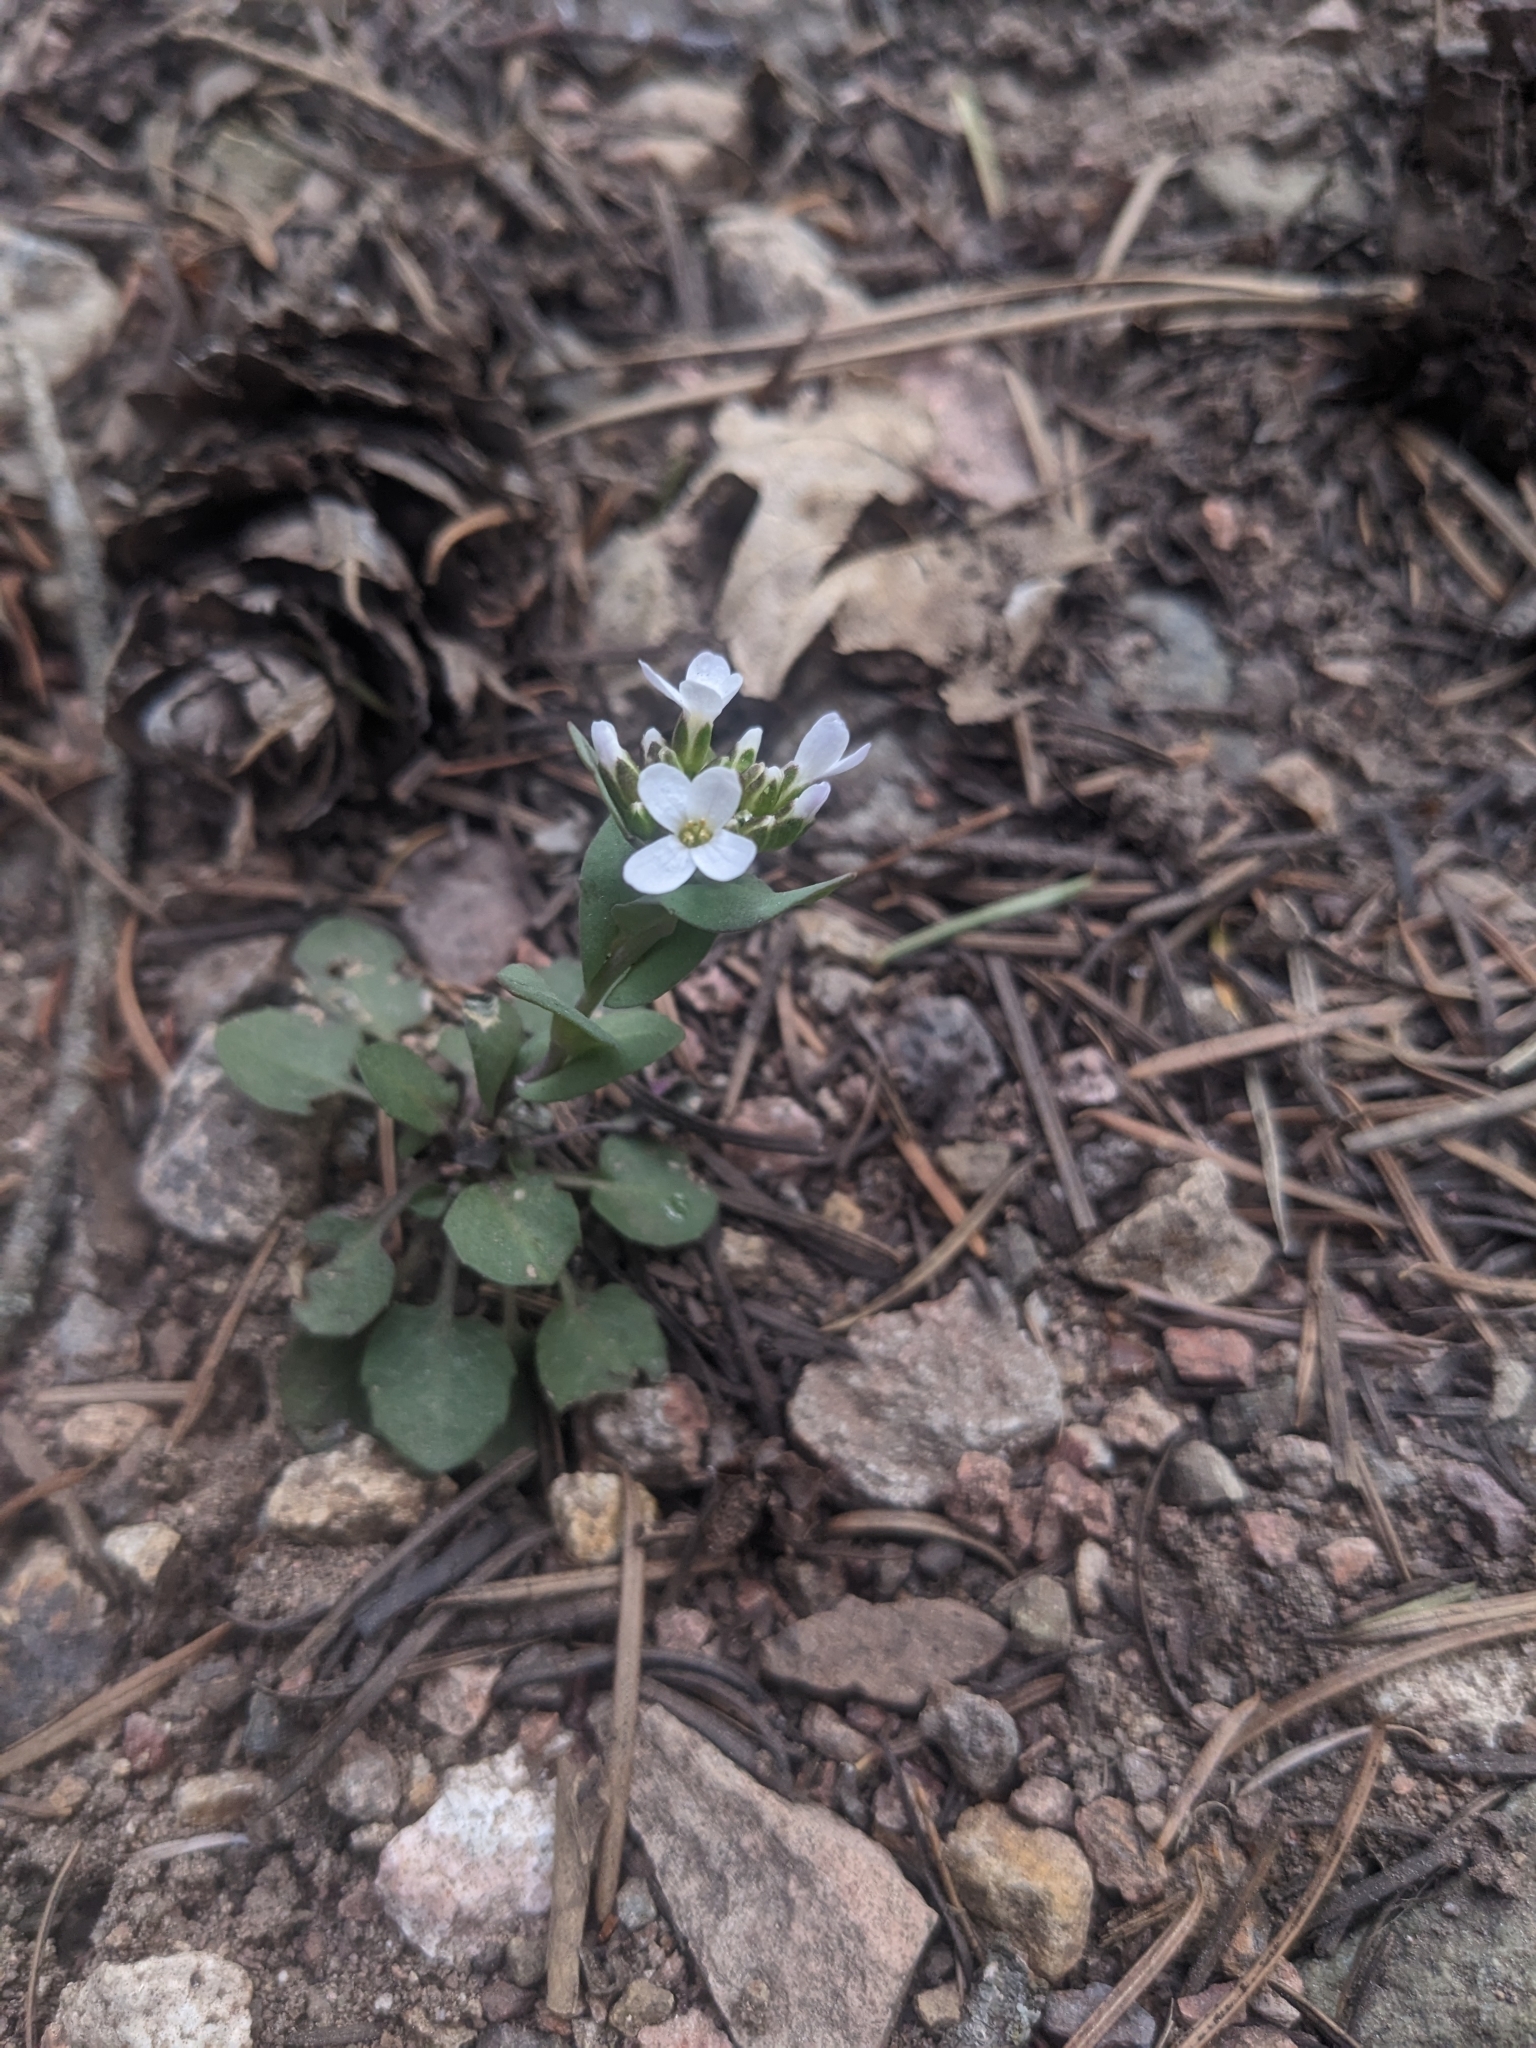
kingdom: Plantae
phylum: Tracheophyta
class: Magnoliopsida
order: Brassicales
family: Brassicaceae
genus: Noccaea
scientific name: Noccaea fendleri
